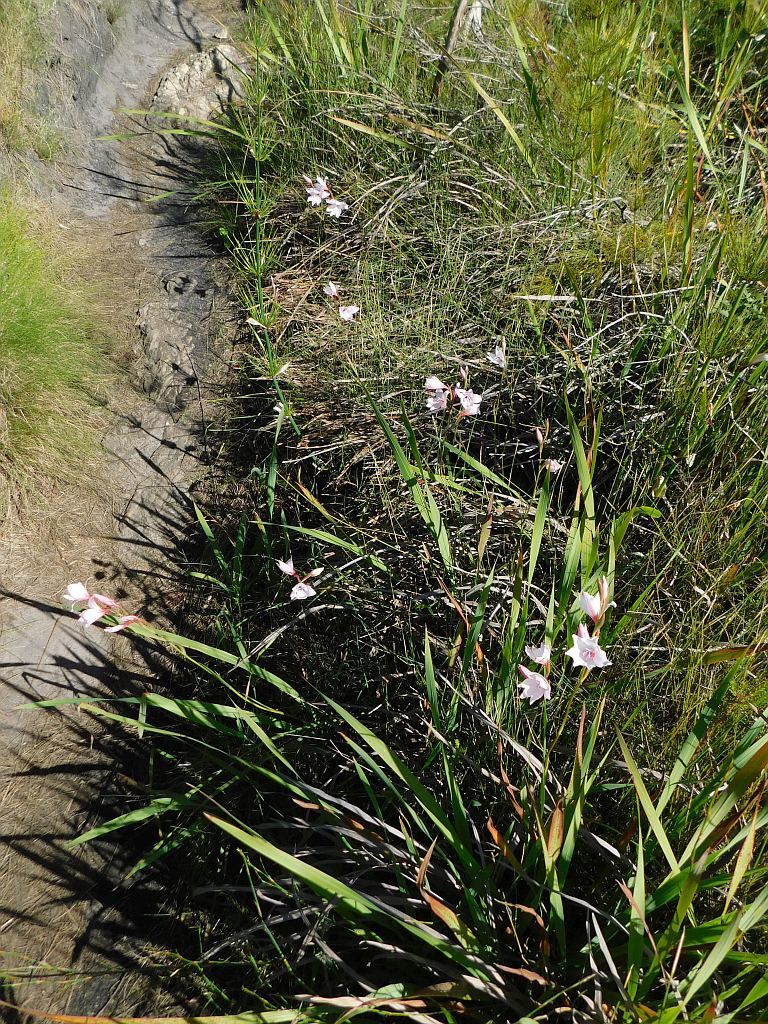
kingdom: Plantae
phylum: Tracheophyta
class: Liliopsida
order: Asparagales
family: Iridaceae
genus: Gladiolus
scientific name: Gladiolus carneus
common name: Painted-lady
